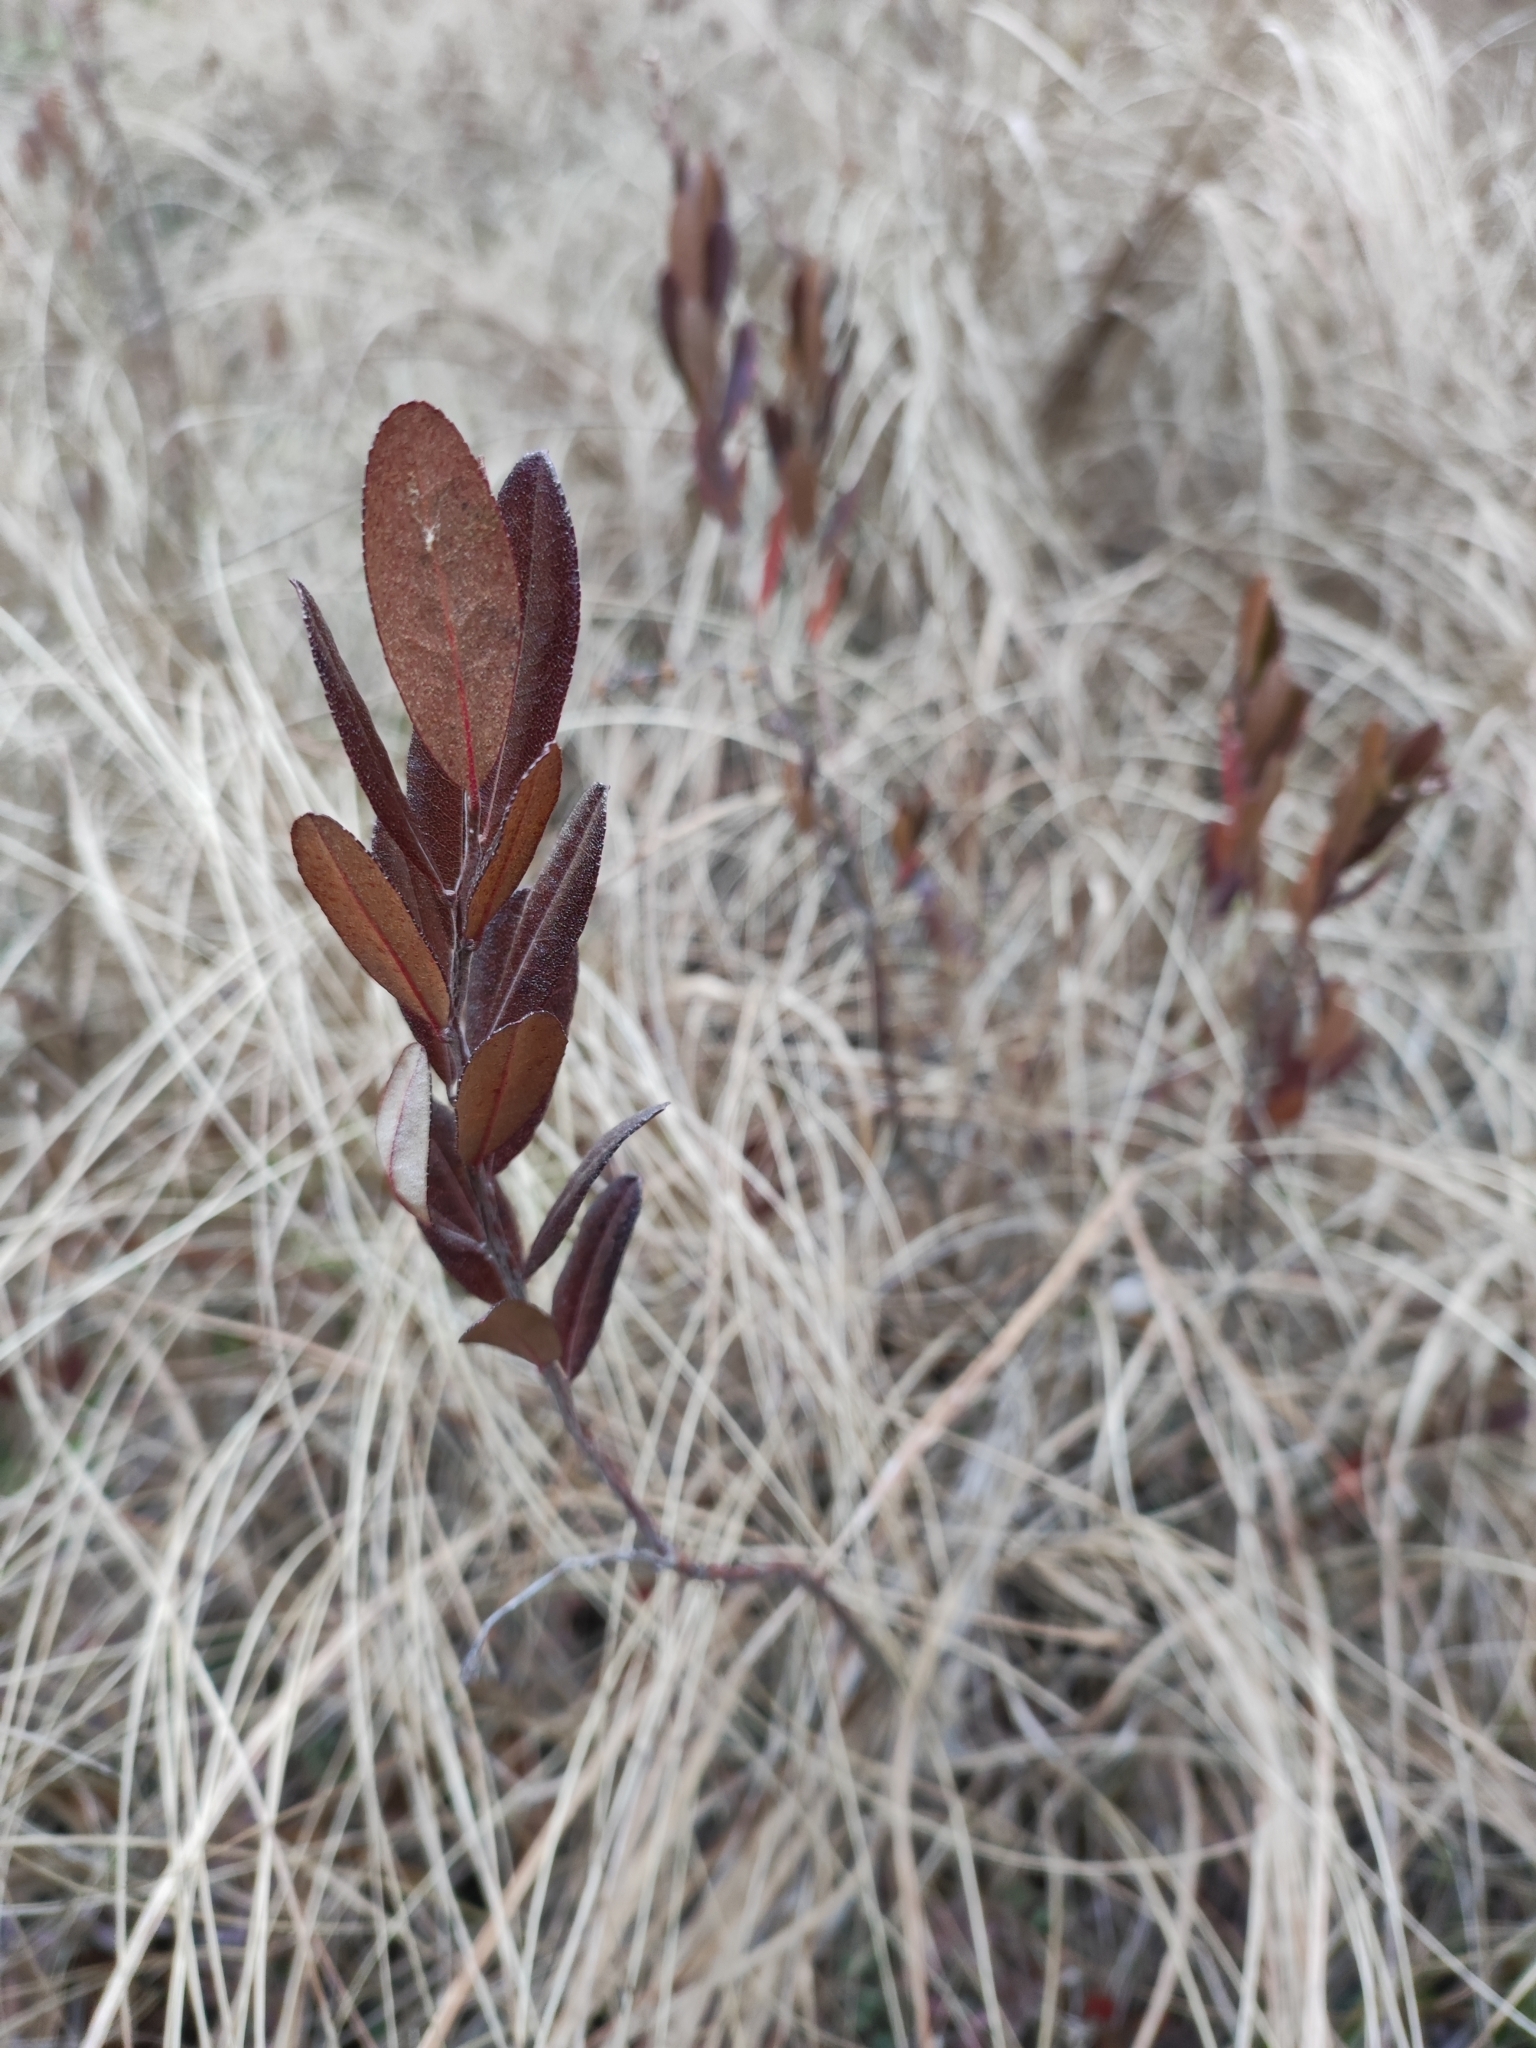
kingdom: Plantae
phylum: Tracheophyta
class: Magnoliopsida
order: Ericales
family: Ericaceae
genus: Chamaedaphne
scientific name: Chamaedaphne calyculata
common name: Leatherleaf
